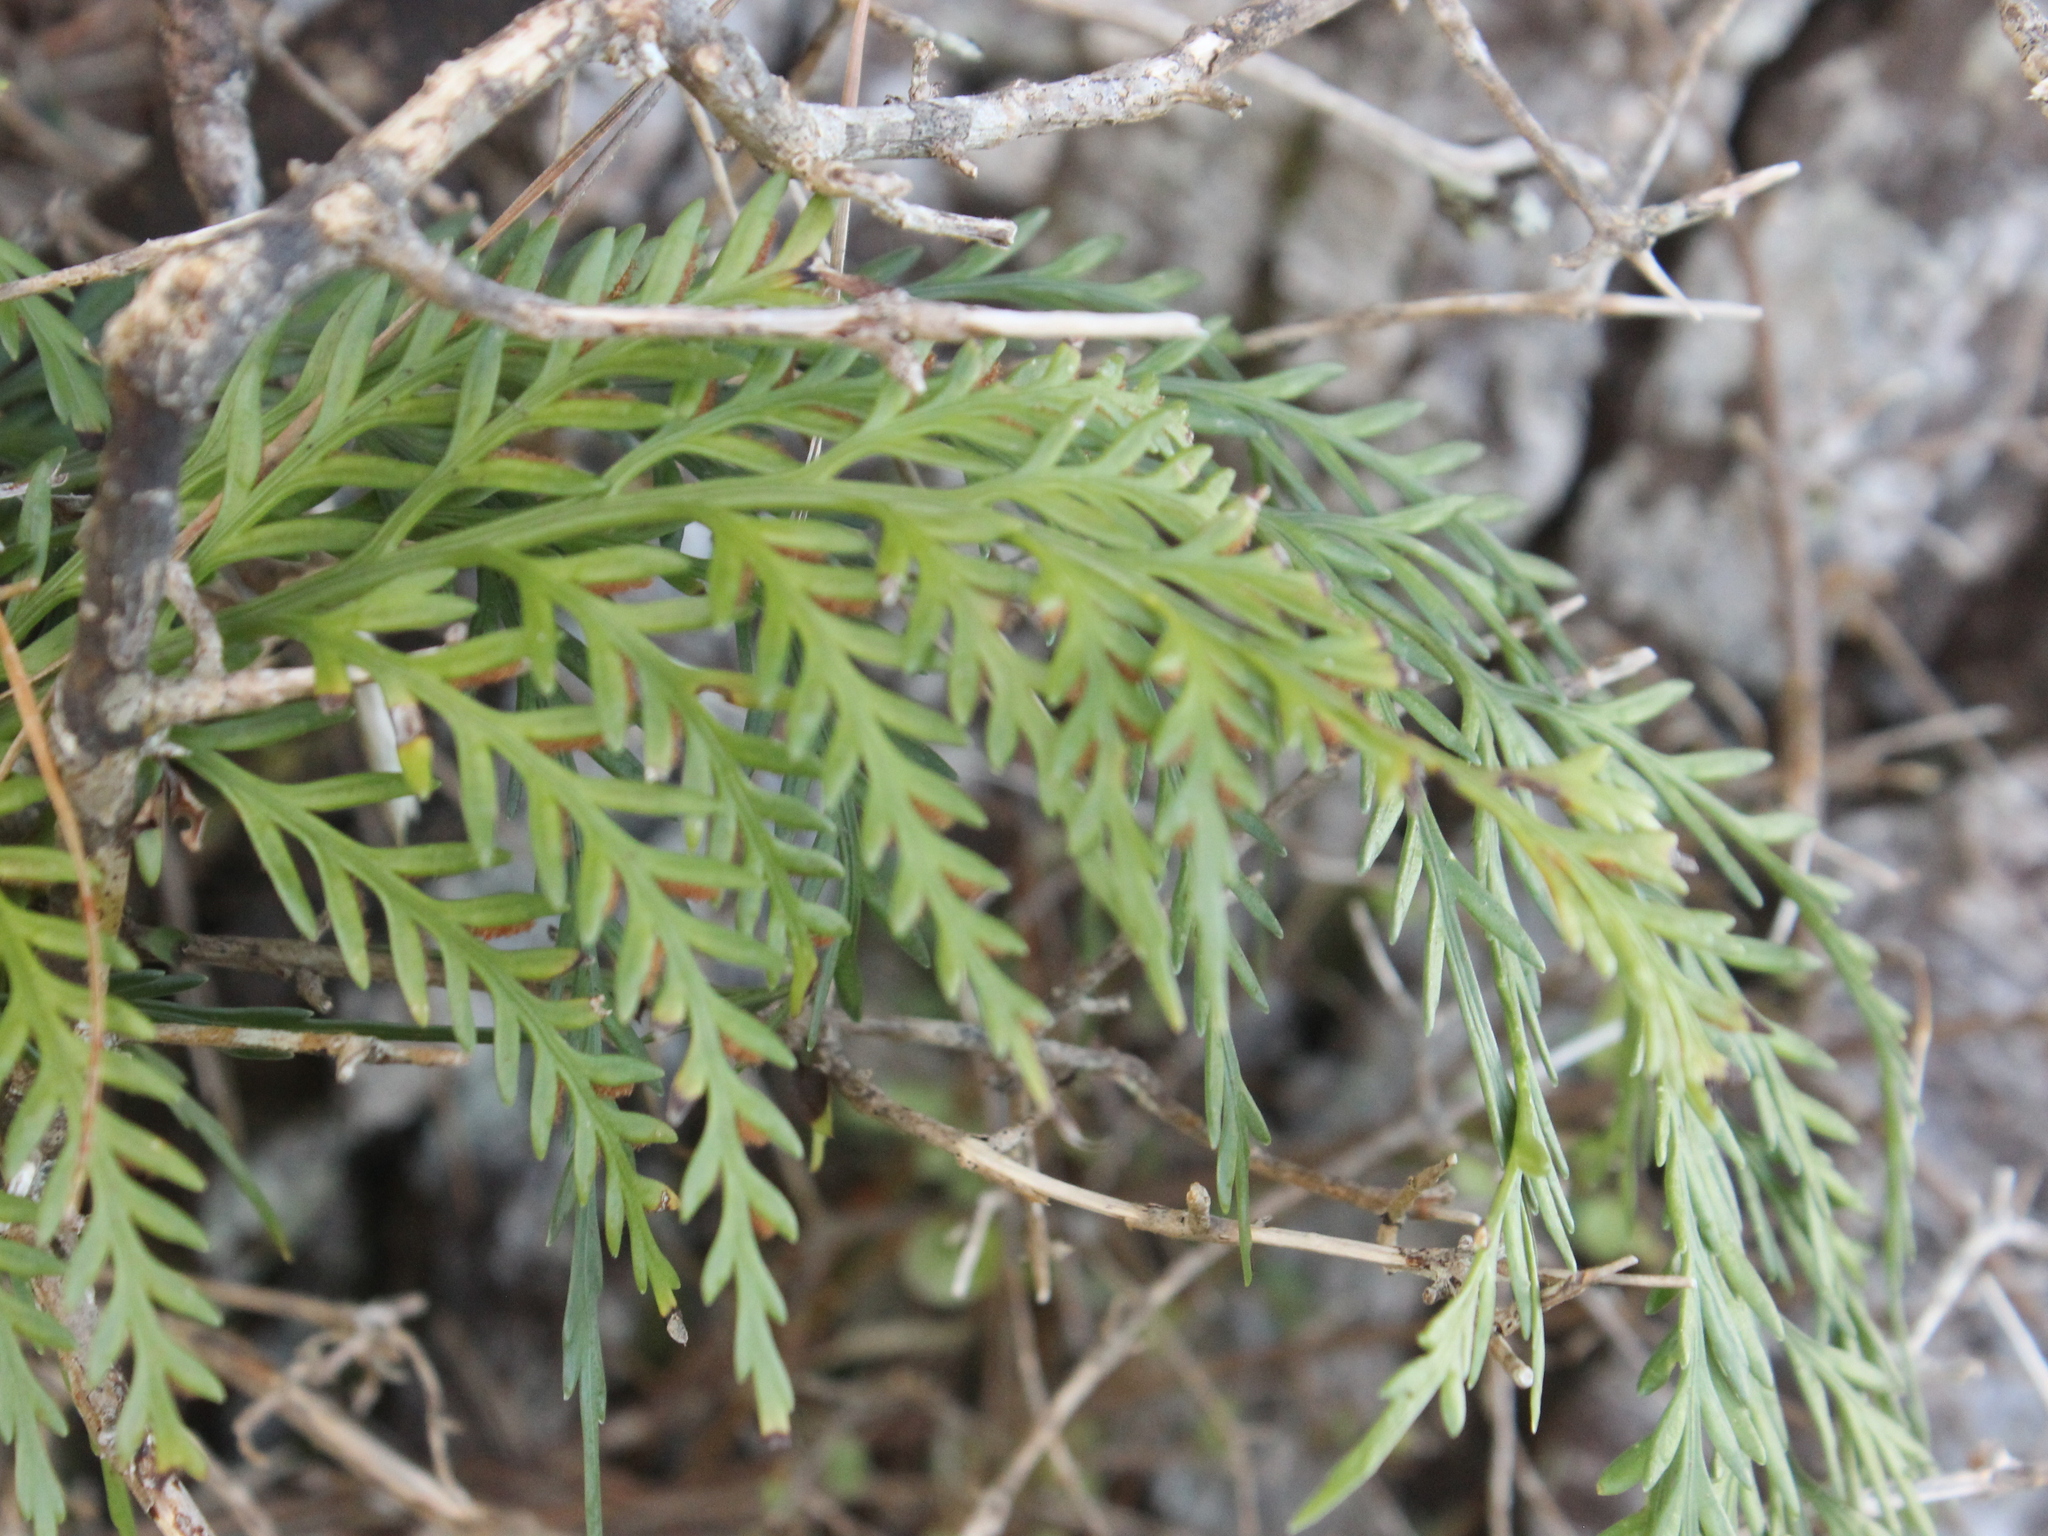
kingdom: Plantae
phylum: Tracheophyta
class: Polypodiopsida
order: Polypodiales
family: Aspleniaceae
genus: Asplenium
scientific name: Asplenium flaccidum
